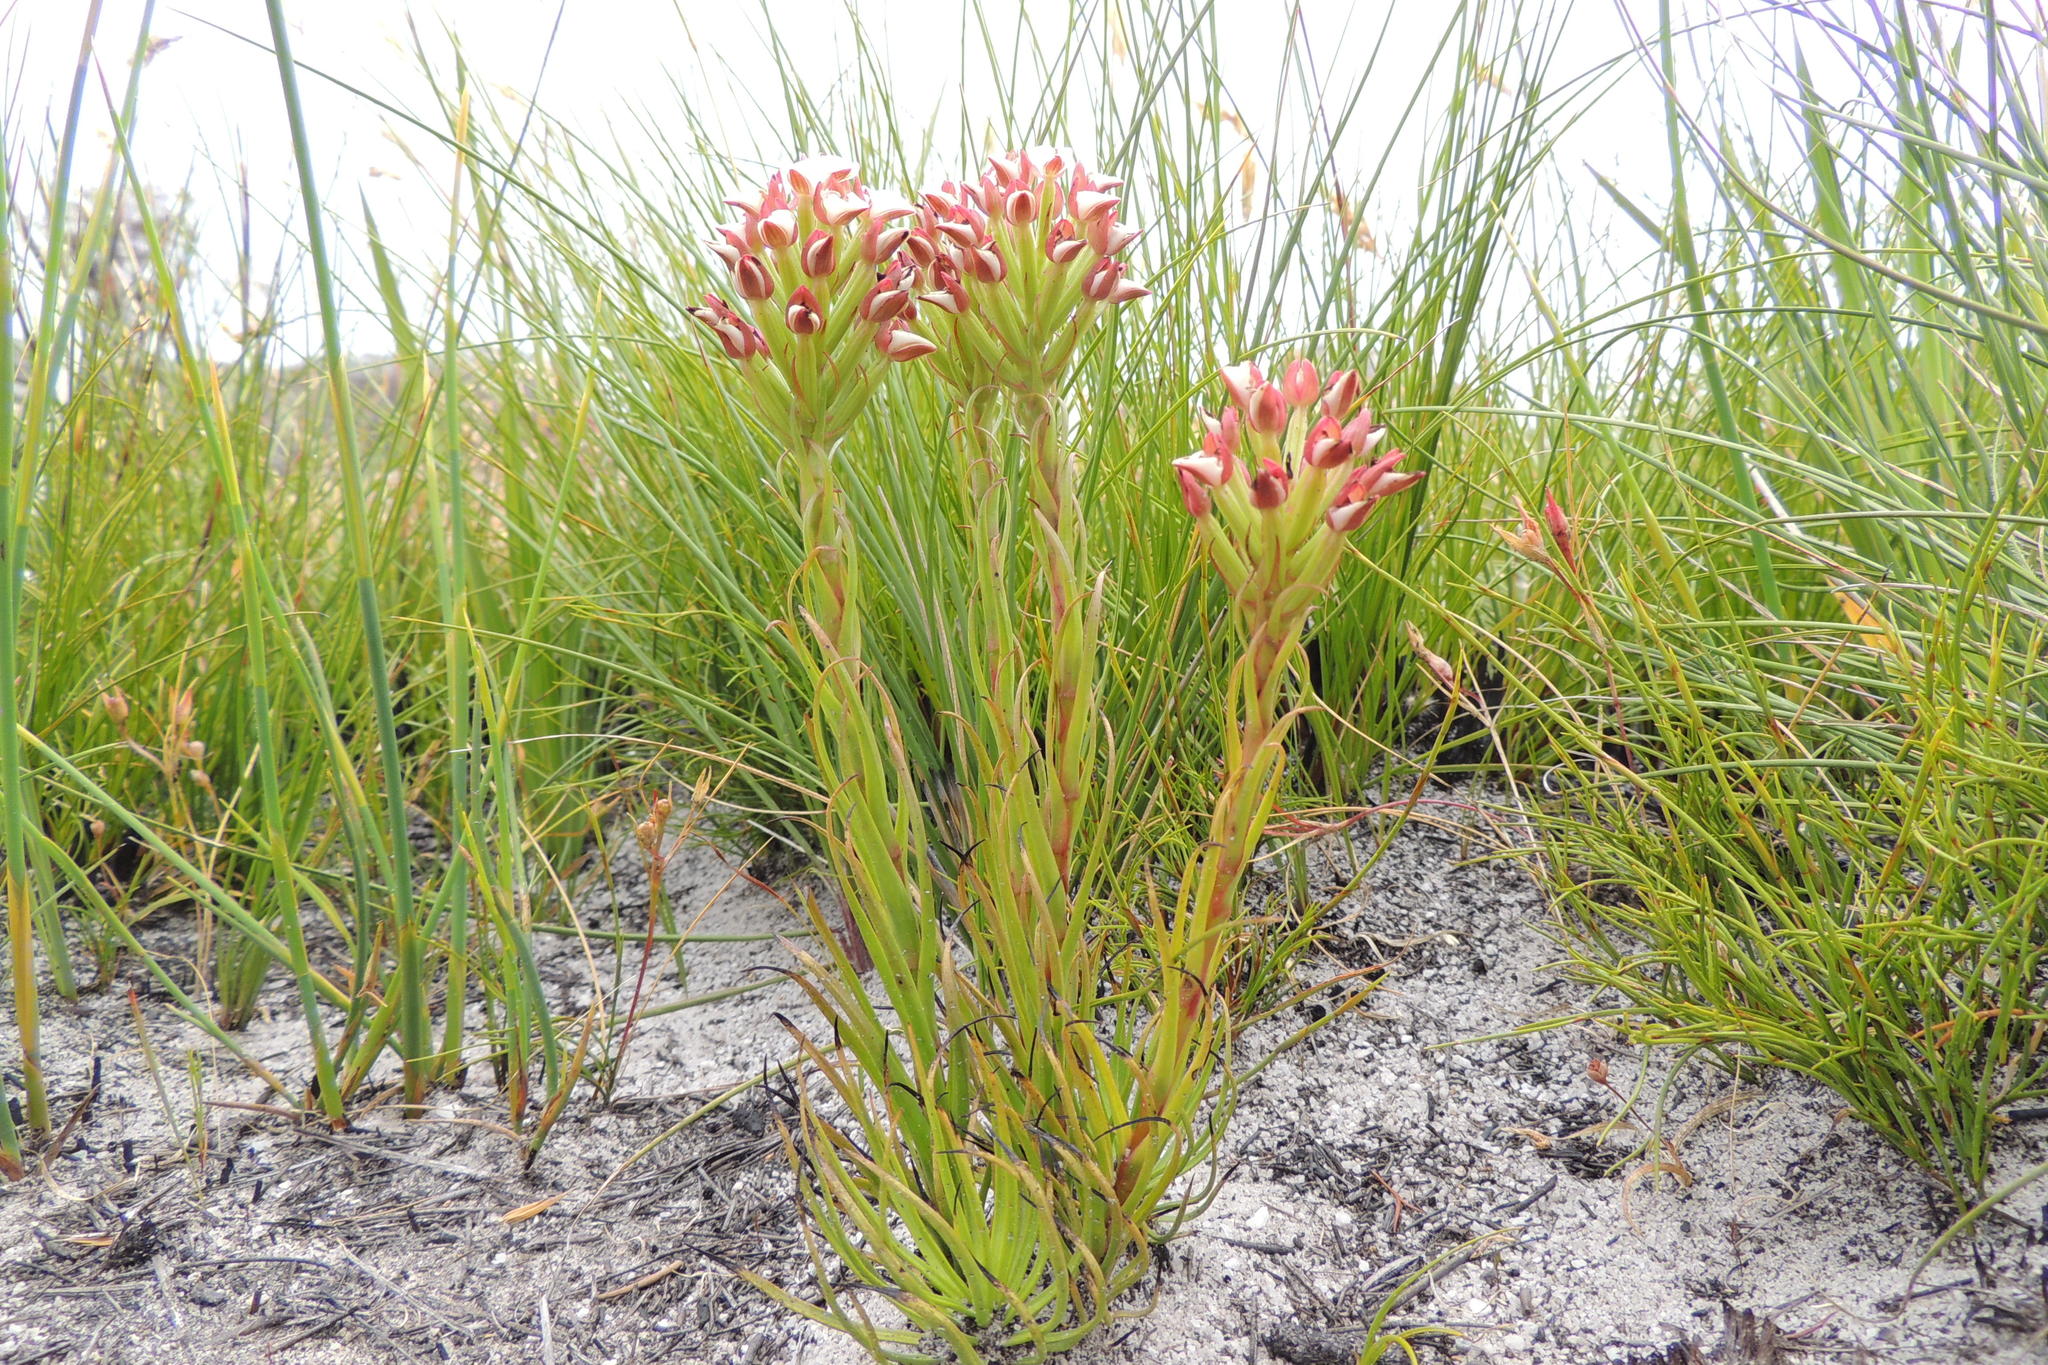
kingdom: Plantae
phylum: Tracheophyta
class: Liliopsida
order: Asparagales
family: Orchidaceae
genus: Ceratandra
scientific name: Ceratandra globosa
